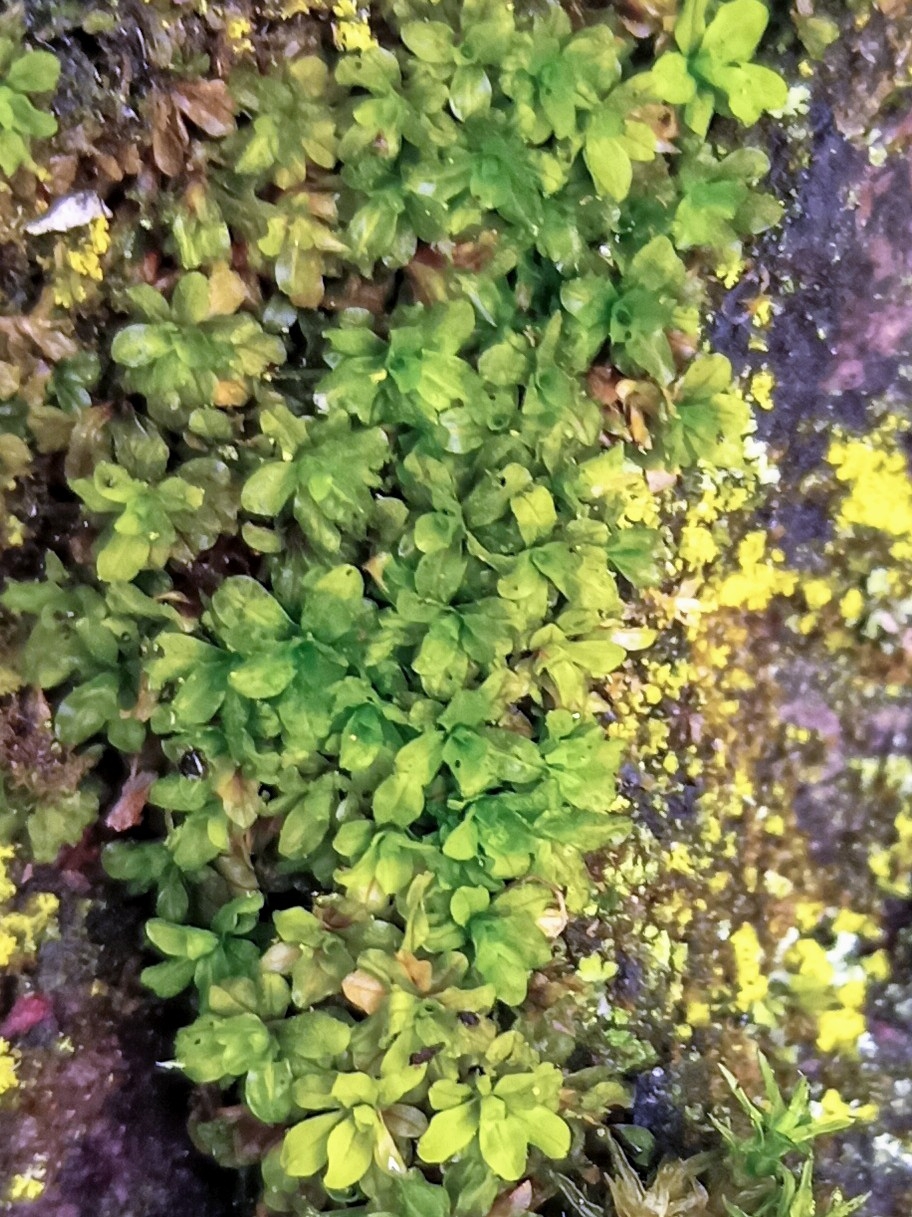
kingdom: Plantae
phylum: Bryophyta
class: Bryopsida
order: Pottiales
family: Pottiaceae
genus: Syntrichia
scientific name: Syntrichia latifolia
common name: Water screw-moss
